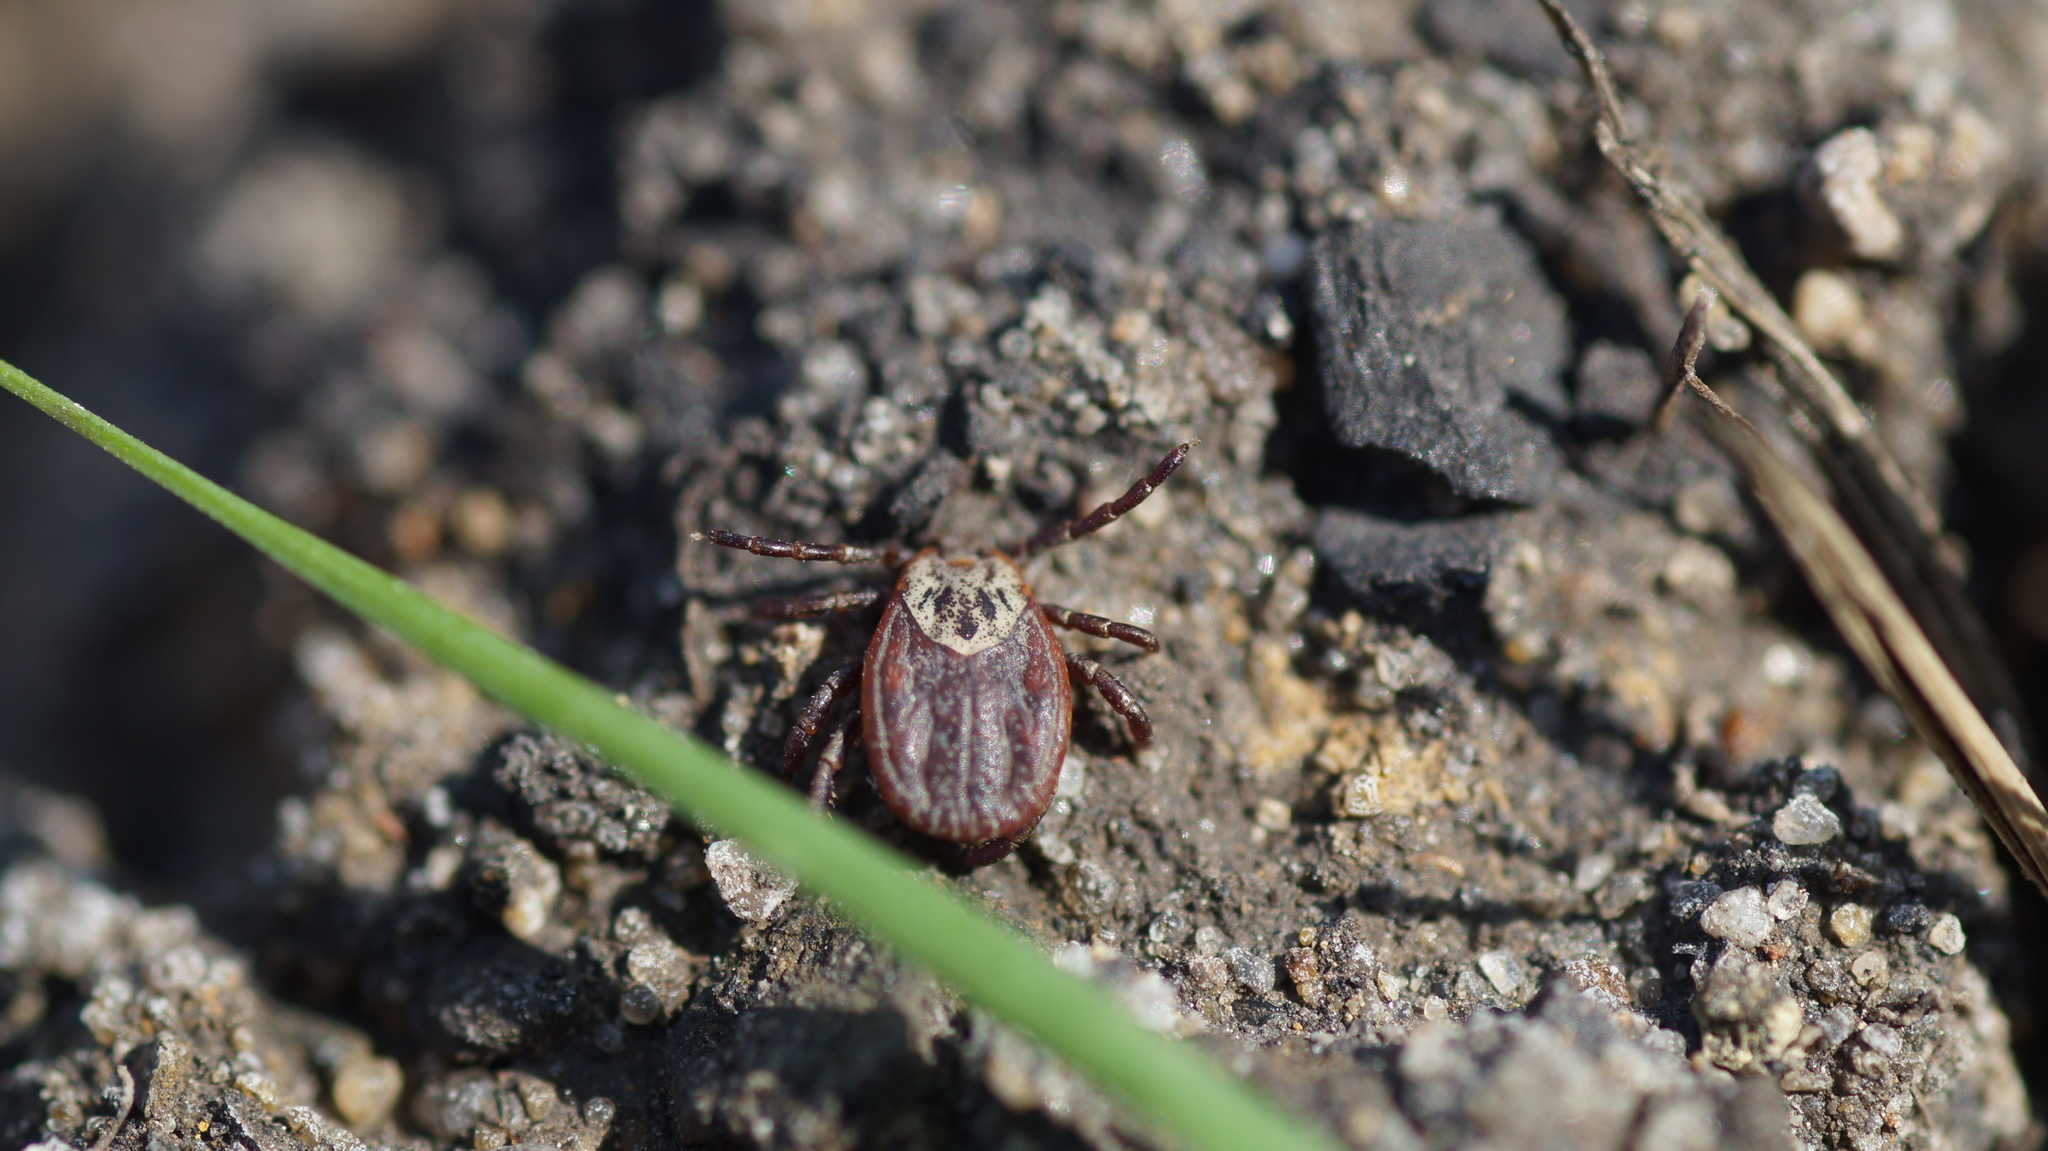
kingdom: Animalia
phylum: Arthropoda
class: Arachnida
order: Ixodida
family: Ixodidae
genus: Dermacentor
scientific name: Dermacentor
